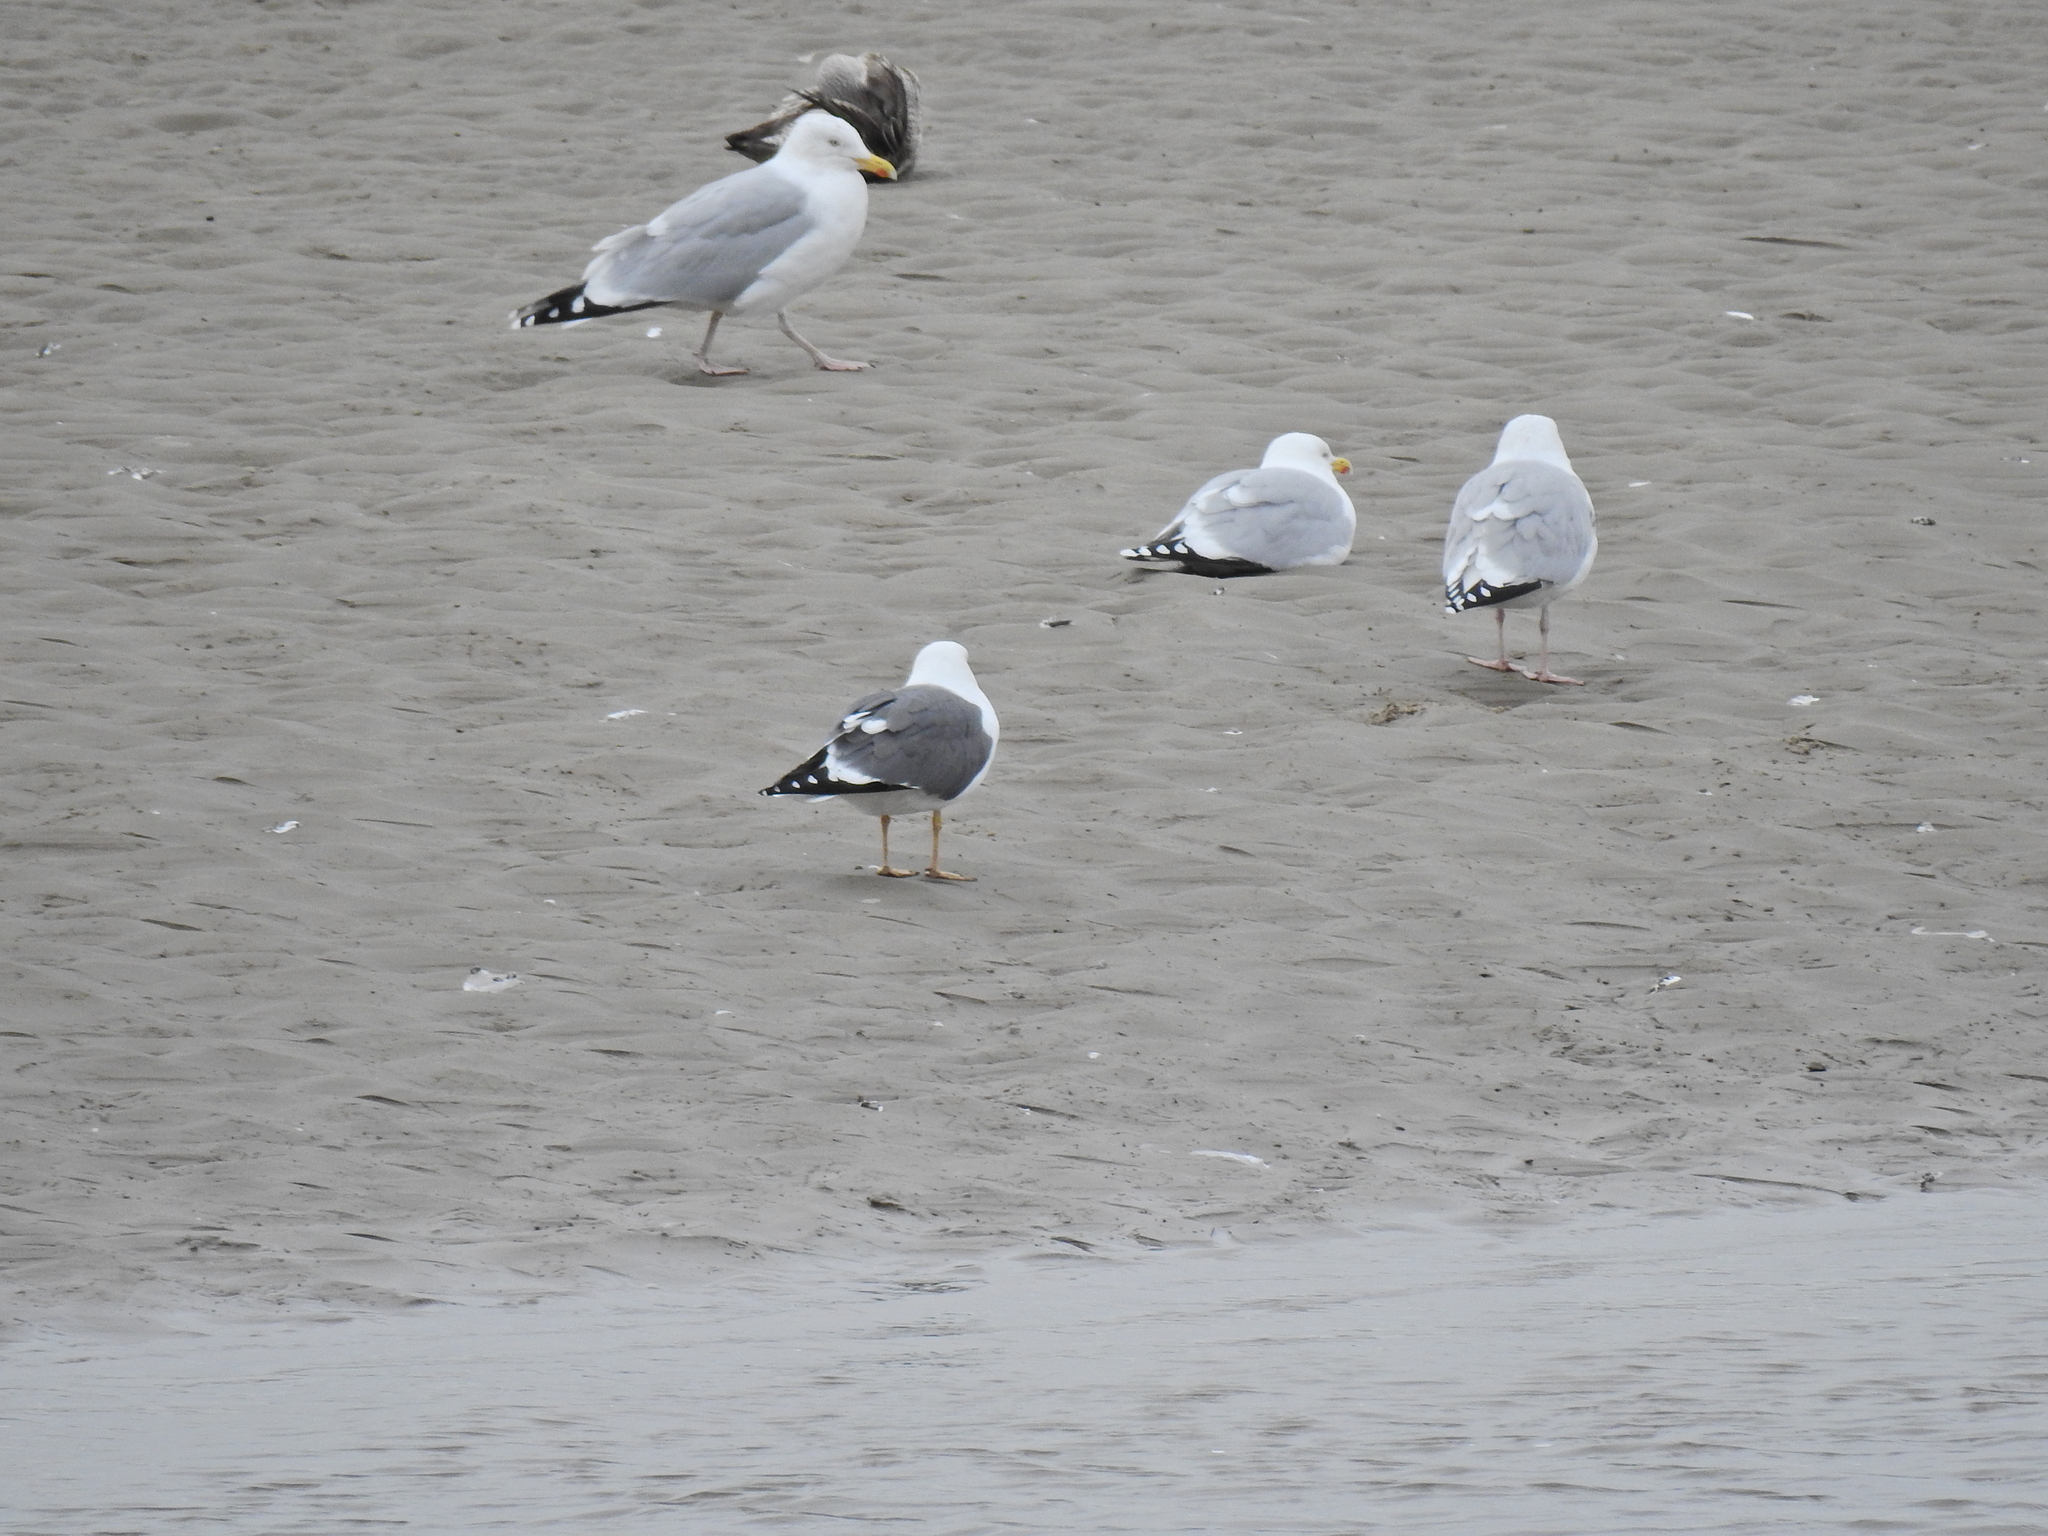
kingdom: Animalia
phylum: Chordata
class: Aves
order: Charadriiformes
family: Laridae
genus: Larus
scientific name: Larus fuscus
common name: Lesser black-backed gull
